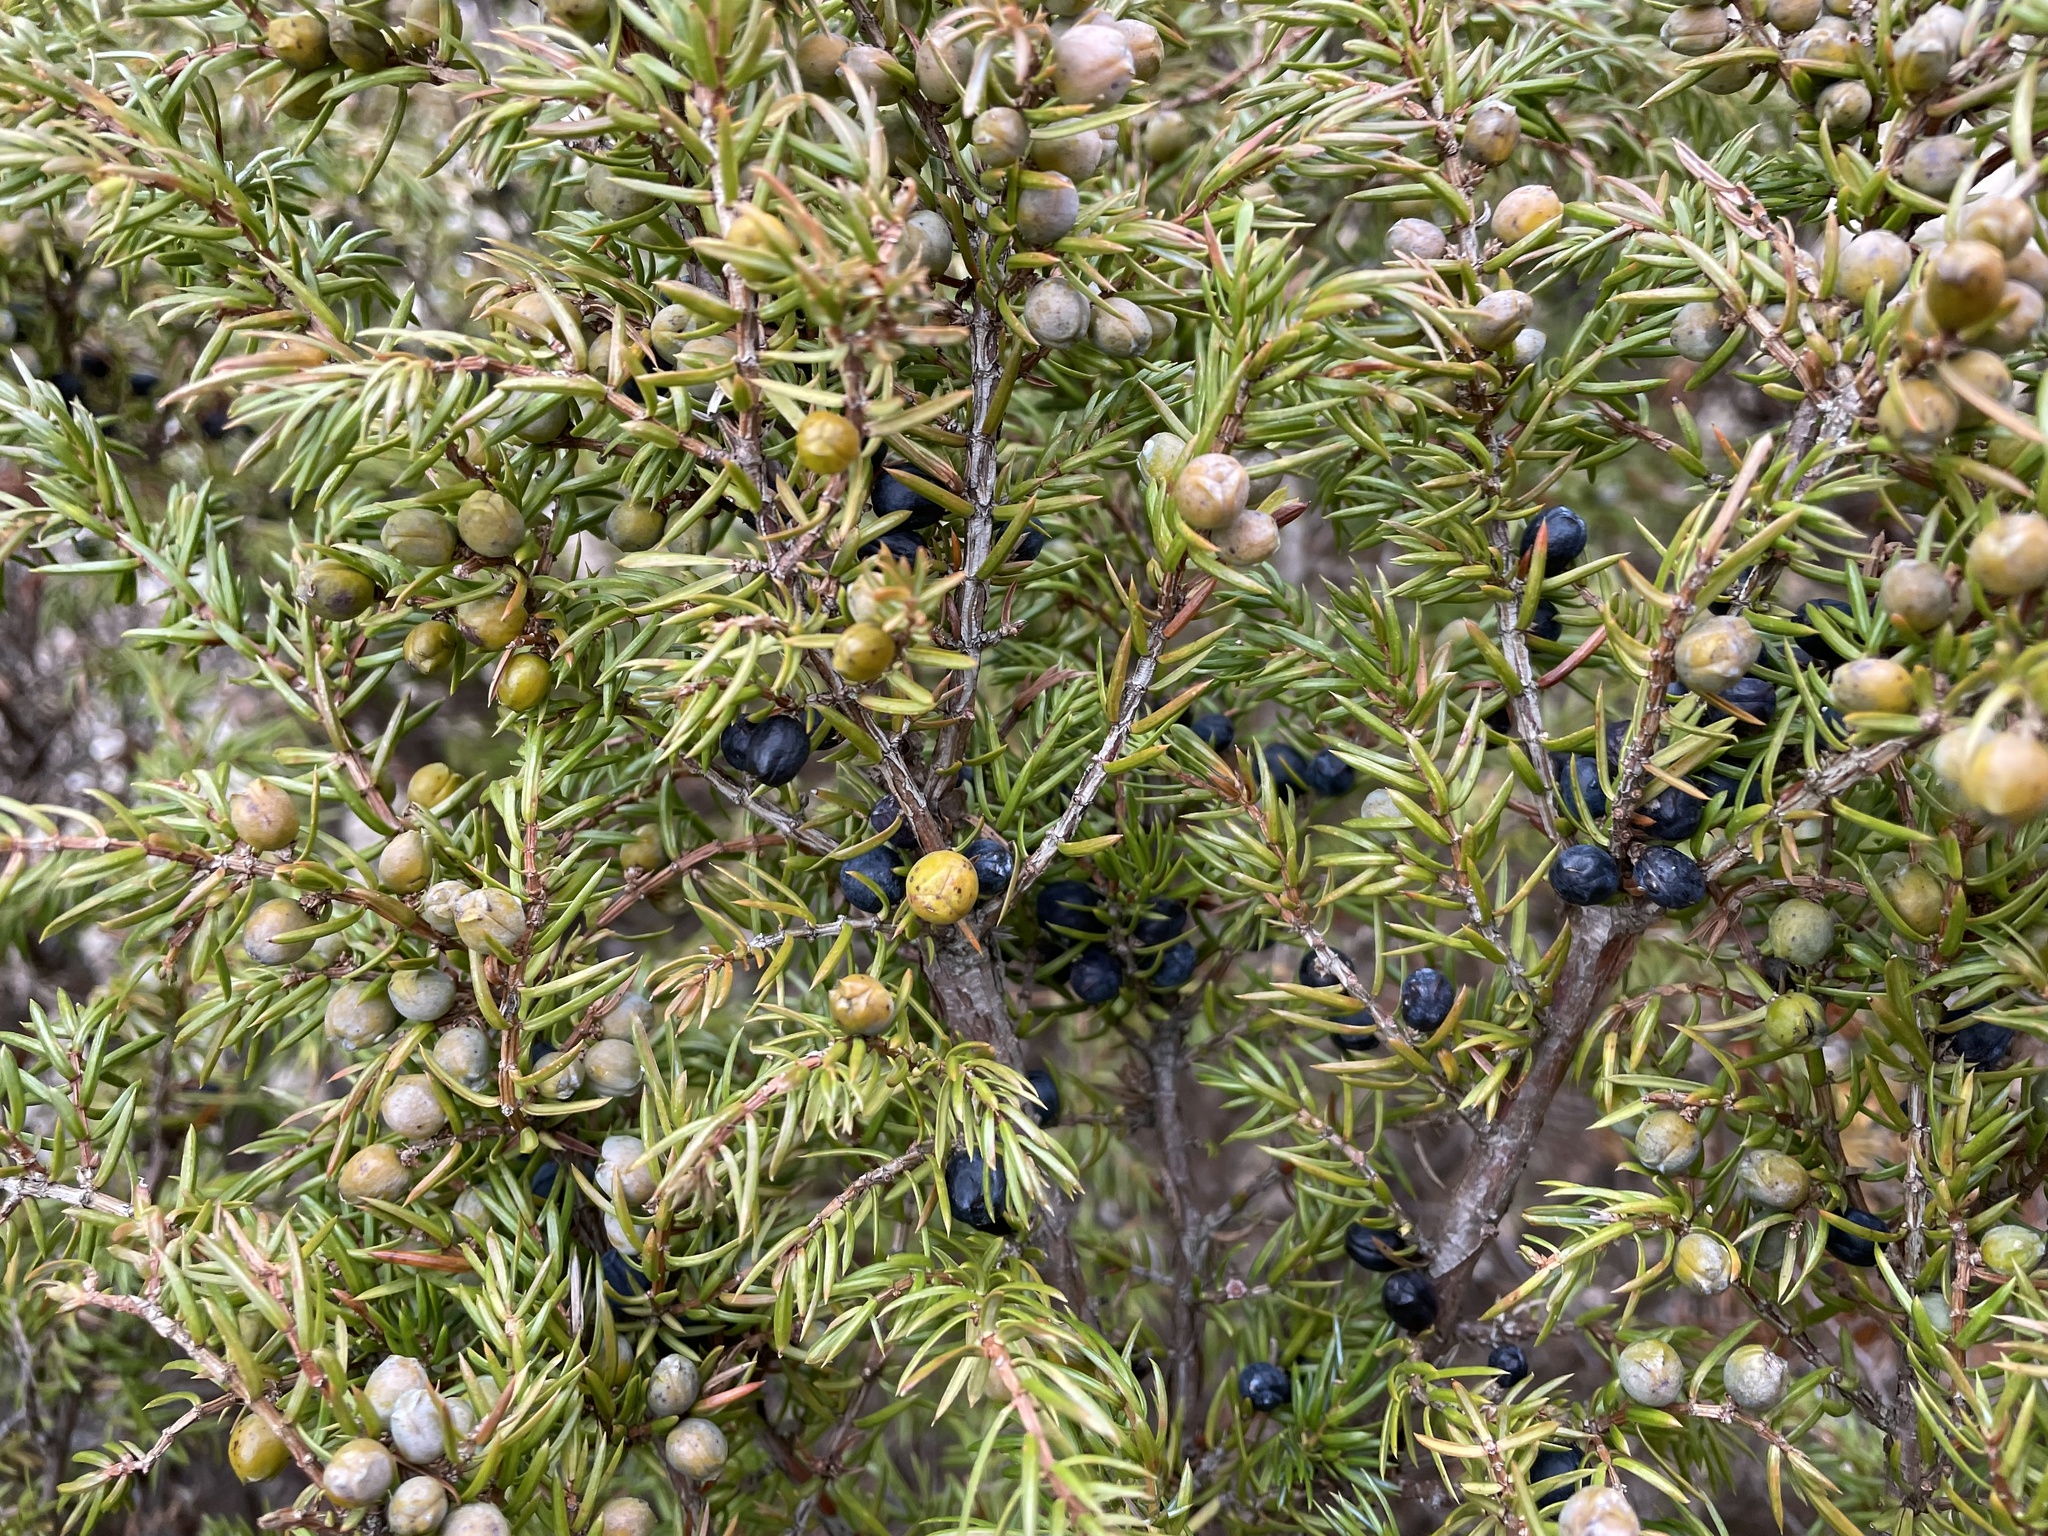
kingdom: Plantae
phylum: Tracheophyta
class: Pinopsida
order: Pinales
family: Cupressaceae
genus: Juniperus
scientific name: Juniperus communis
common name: Common juniper
